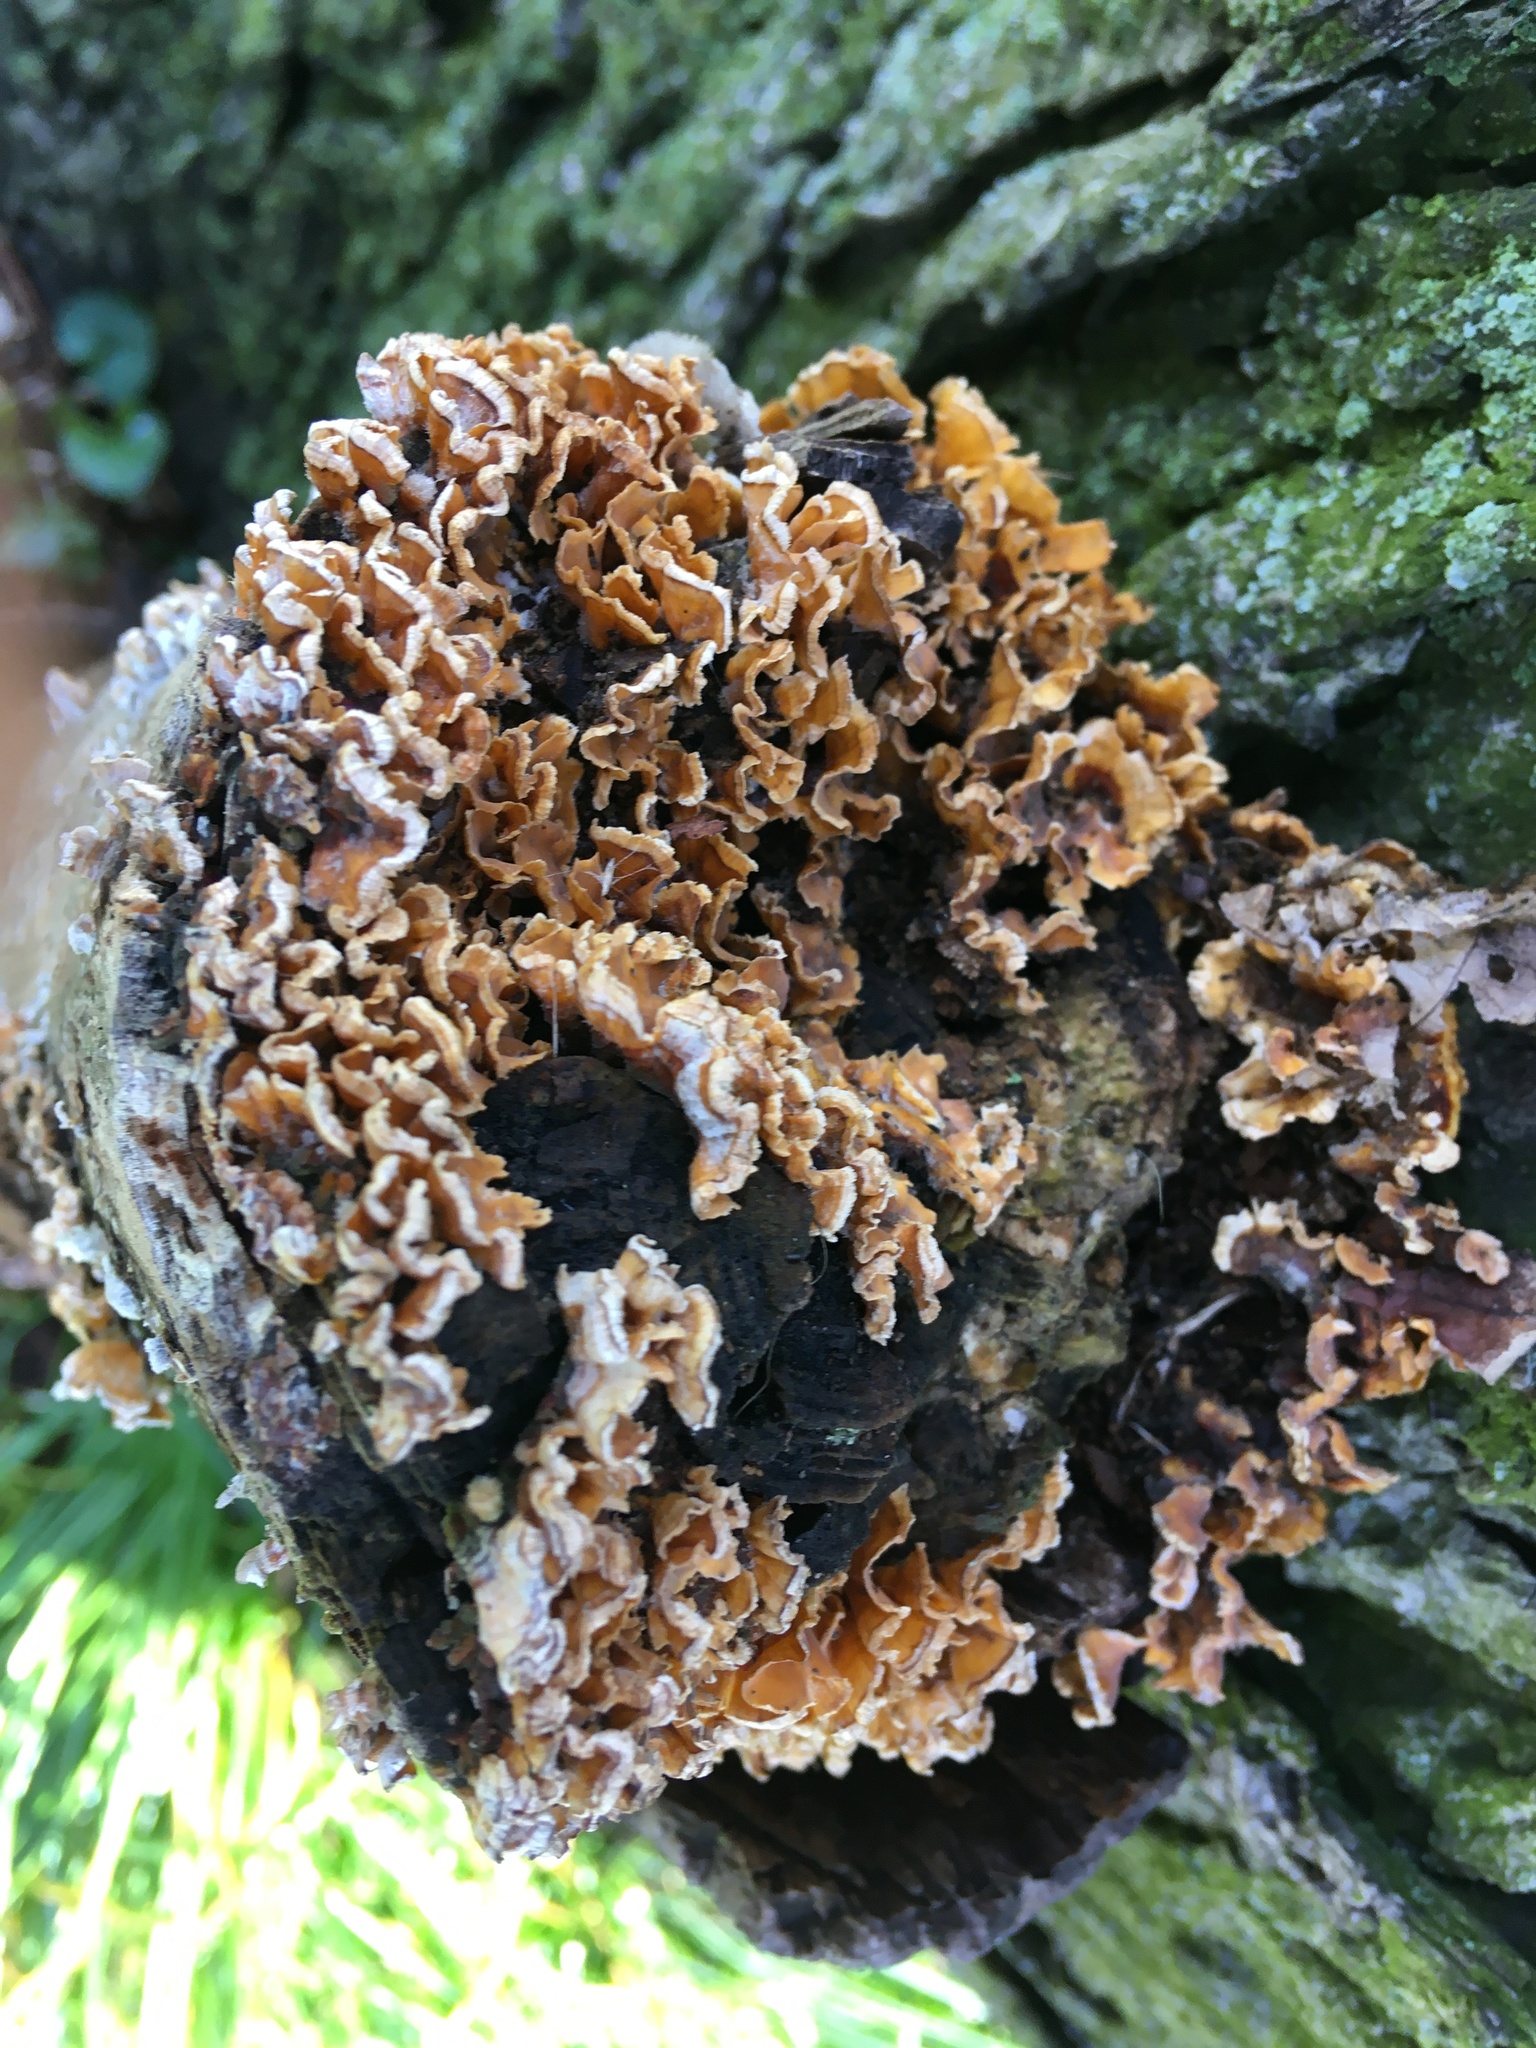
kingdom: Fungi
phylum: Basidiomycota
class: Agaricomycetes
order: Russulales
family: Stereaceae
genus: Stereum
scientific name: Stereum complicatum
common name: Crowded parchment
